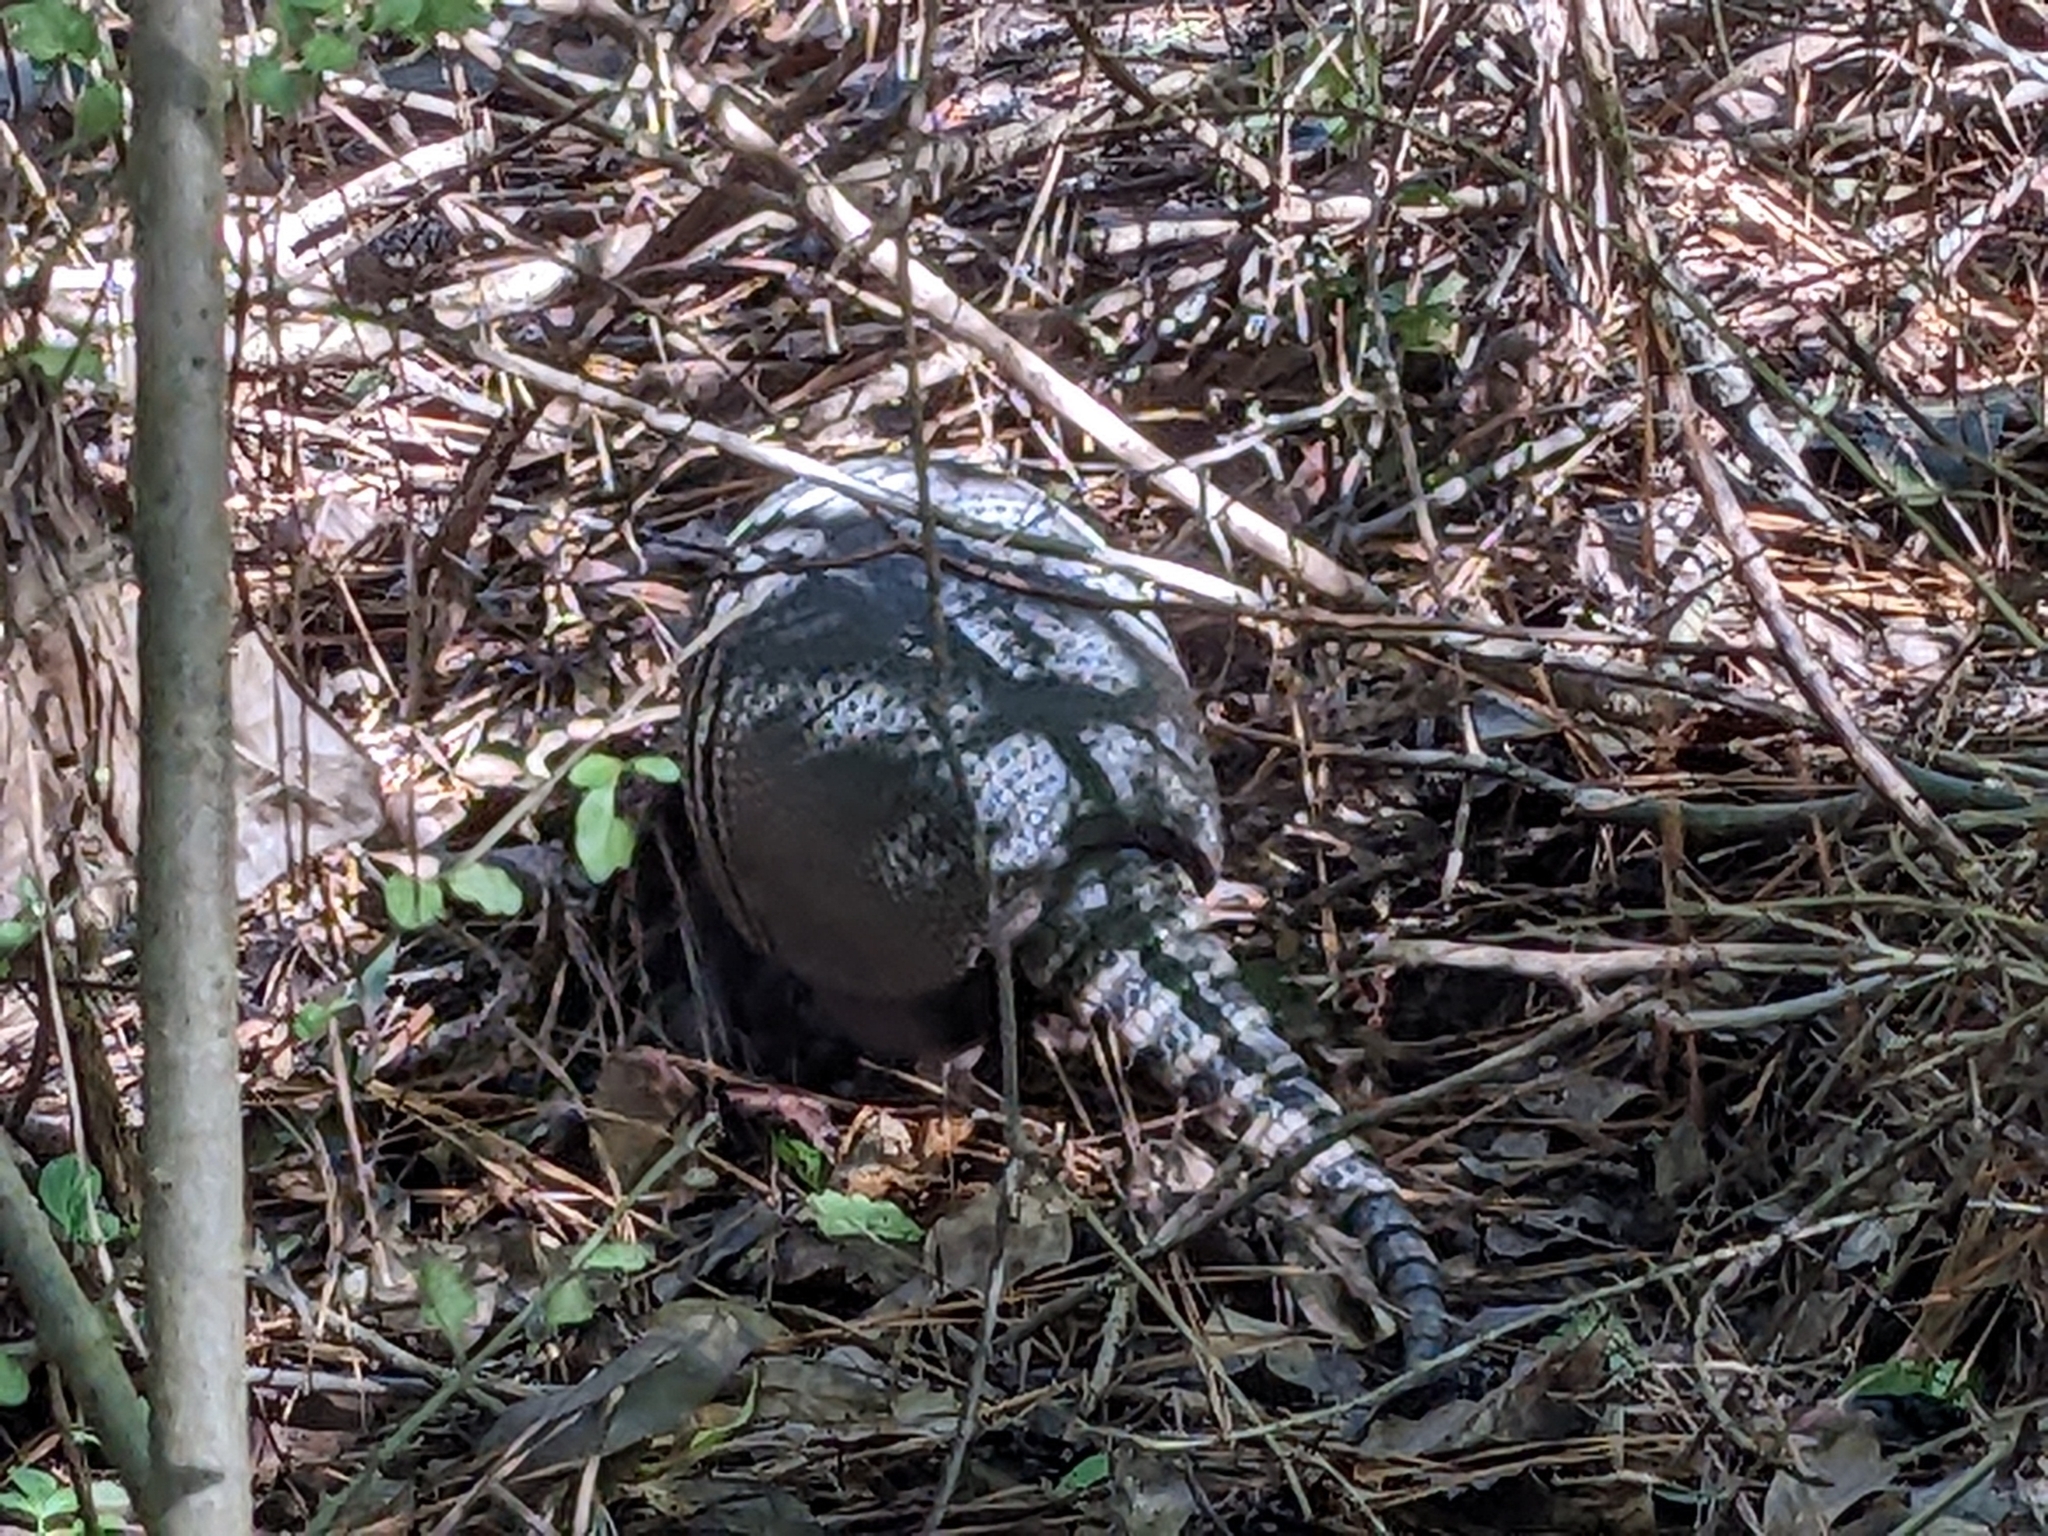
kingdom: Animalia
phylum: Chordata
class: Mammalia
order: Cingulata
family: Dasypodidae
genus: Dasypus
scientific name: Dasypus novemcinctus
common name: Nine-banded armadillo
